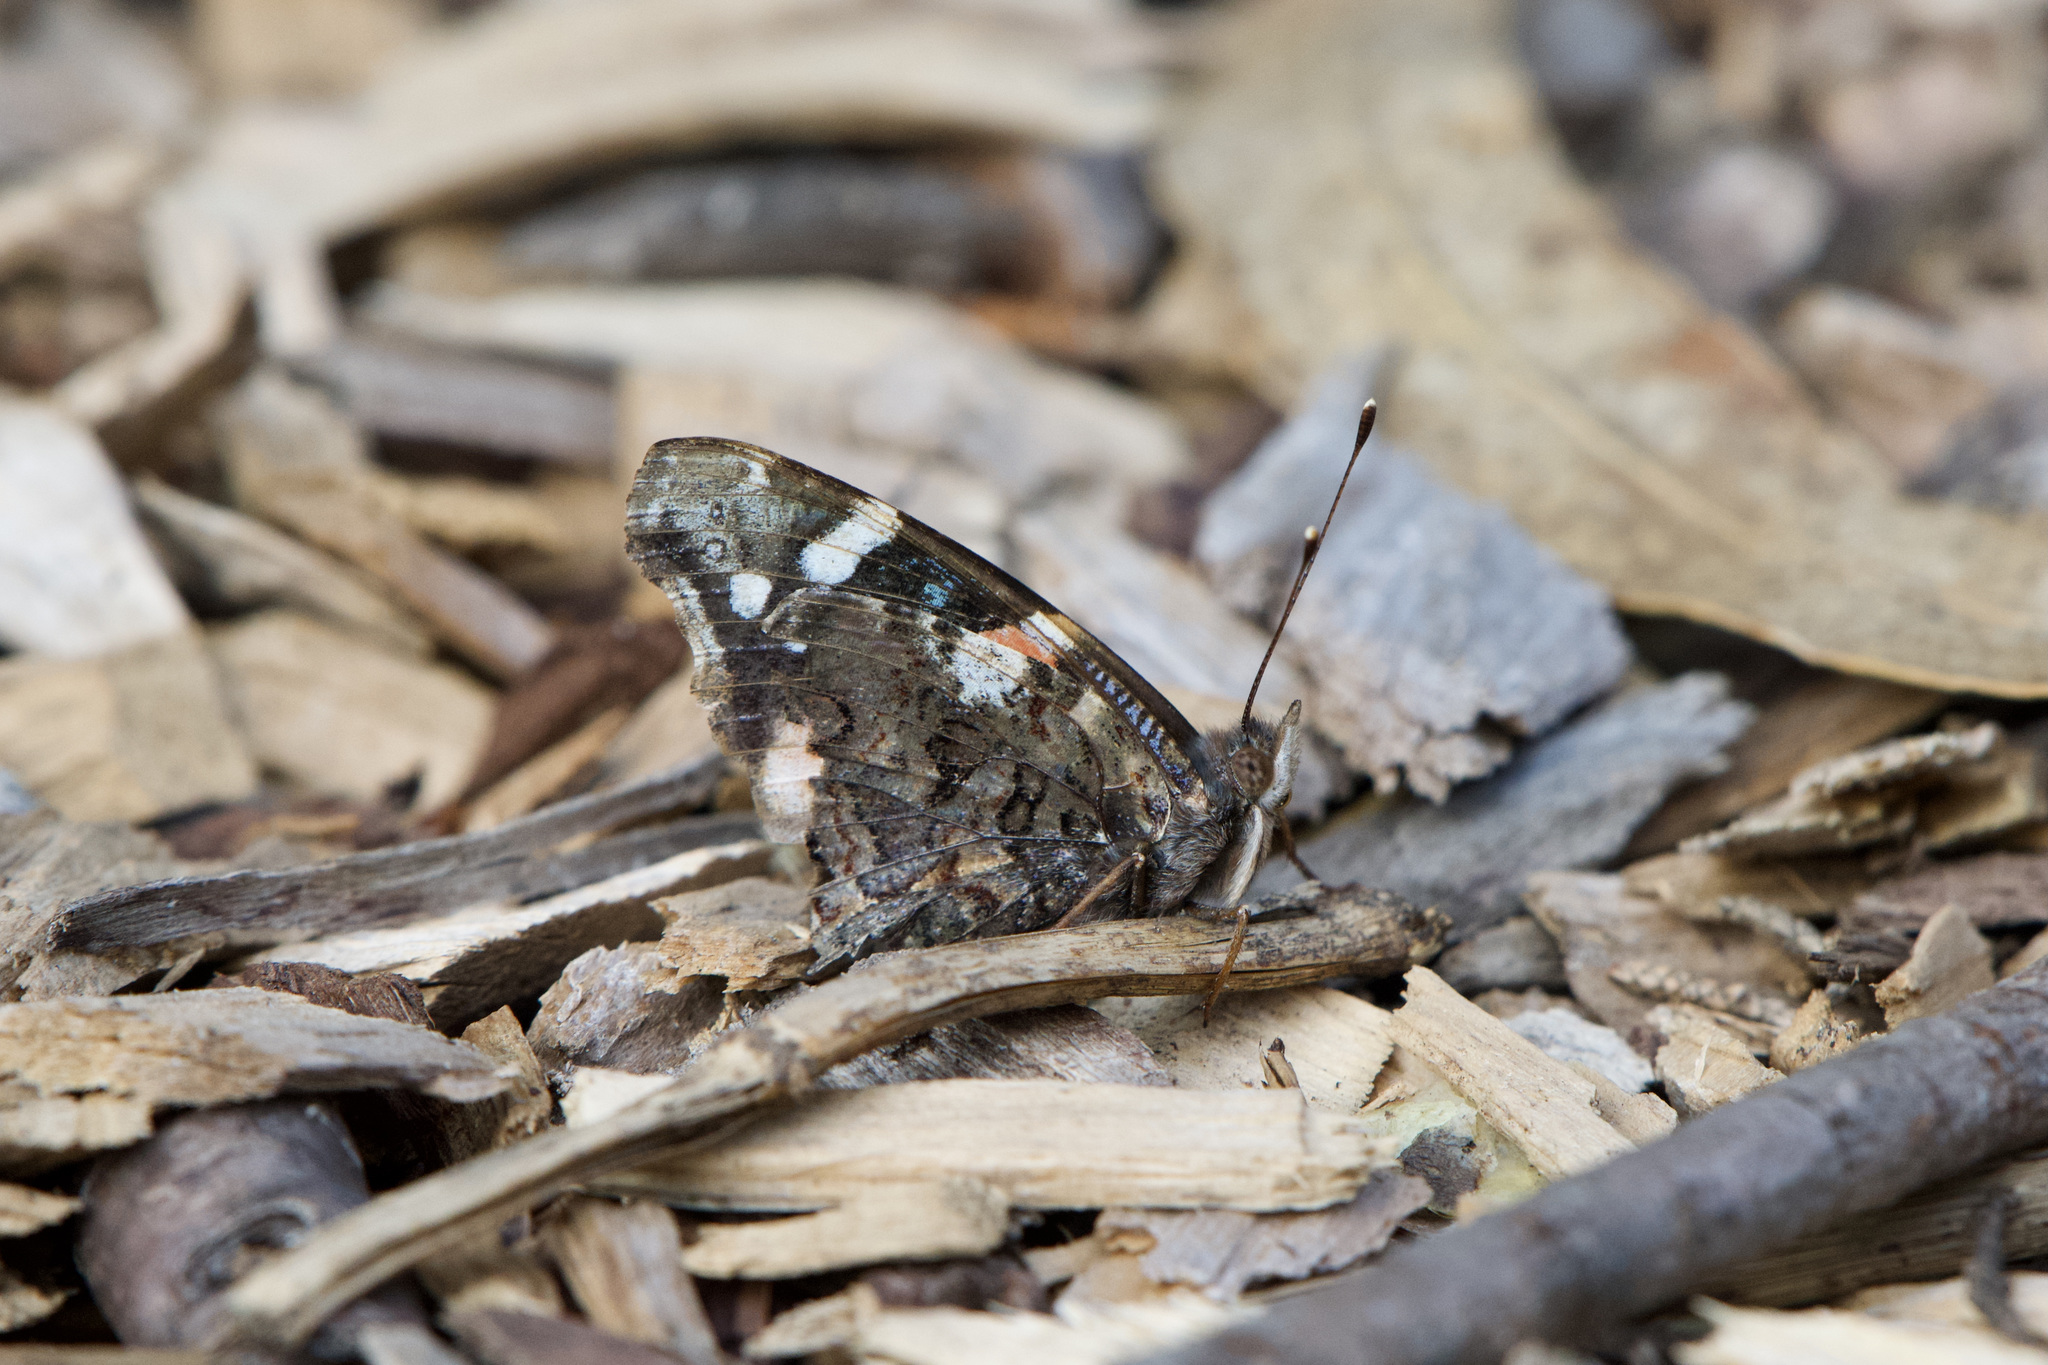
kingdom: Animalia
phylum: Arthropoda
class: Insecta
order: Lepidoptera
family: Nymphalidae
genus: Vanessa
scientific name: Vanessa atalanta
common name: Red admiral
